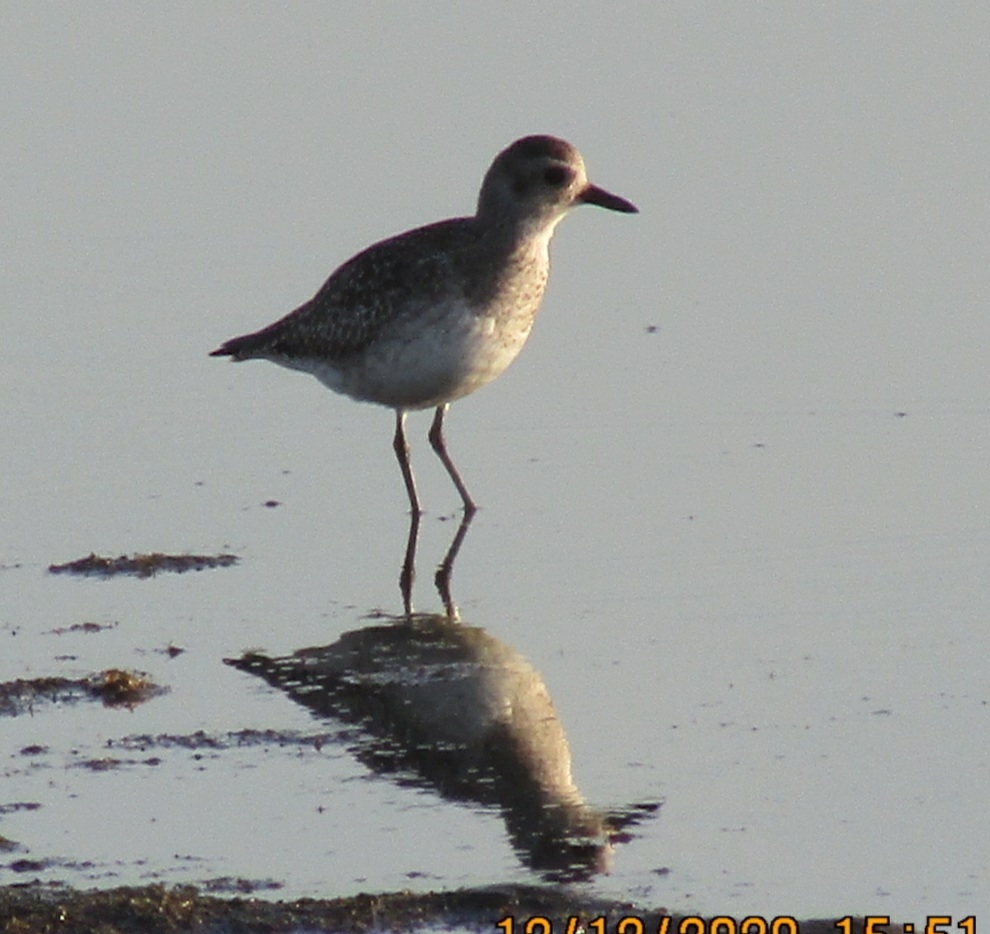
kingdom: Animalia
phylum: Chordata
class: Aves
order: Charadriiformes
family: Charadriidae
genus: Pluvialis
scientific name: Pluvialis squatarola
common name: Grey plover
